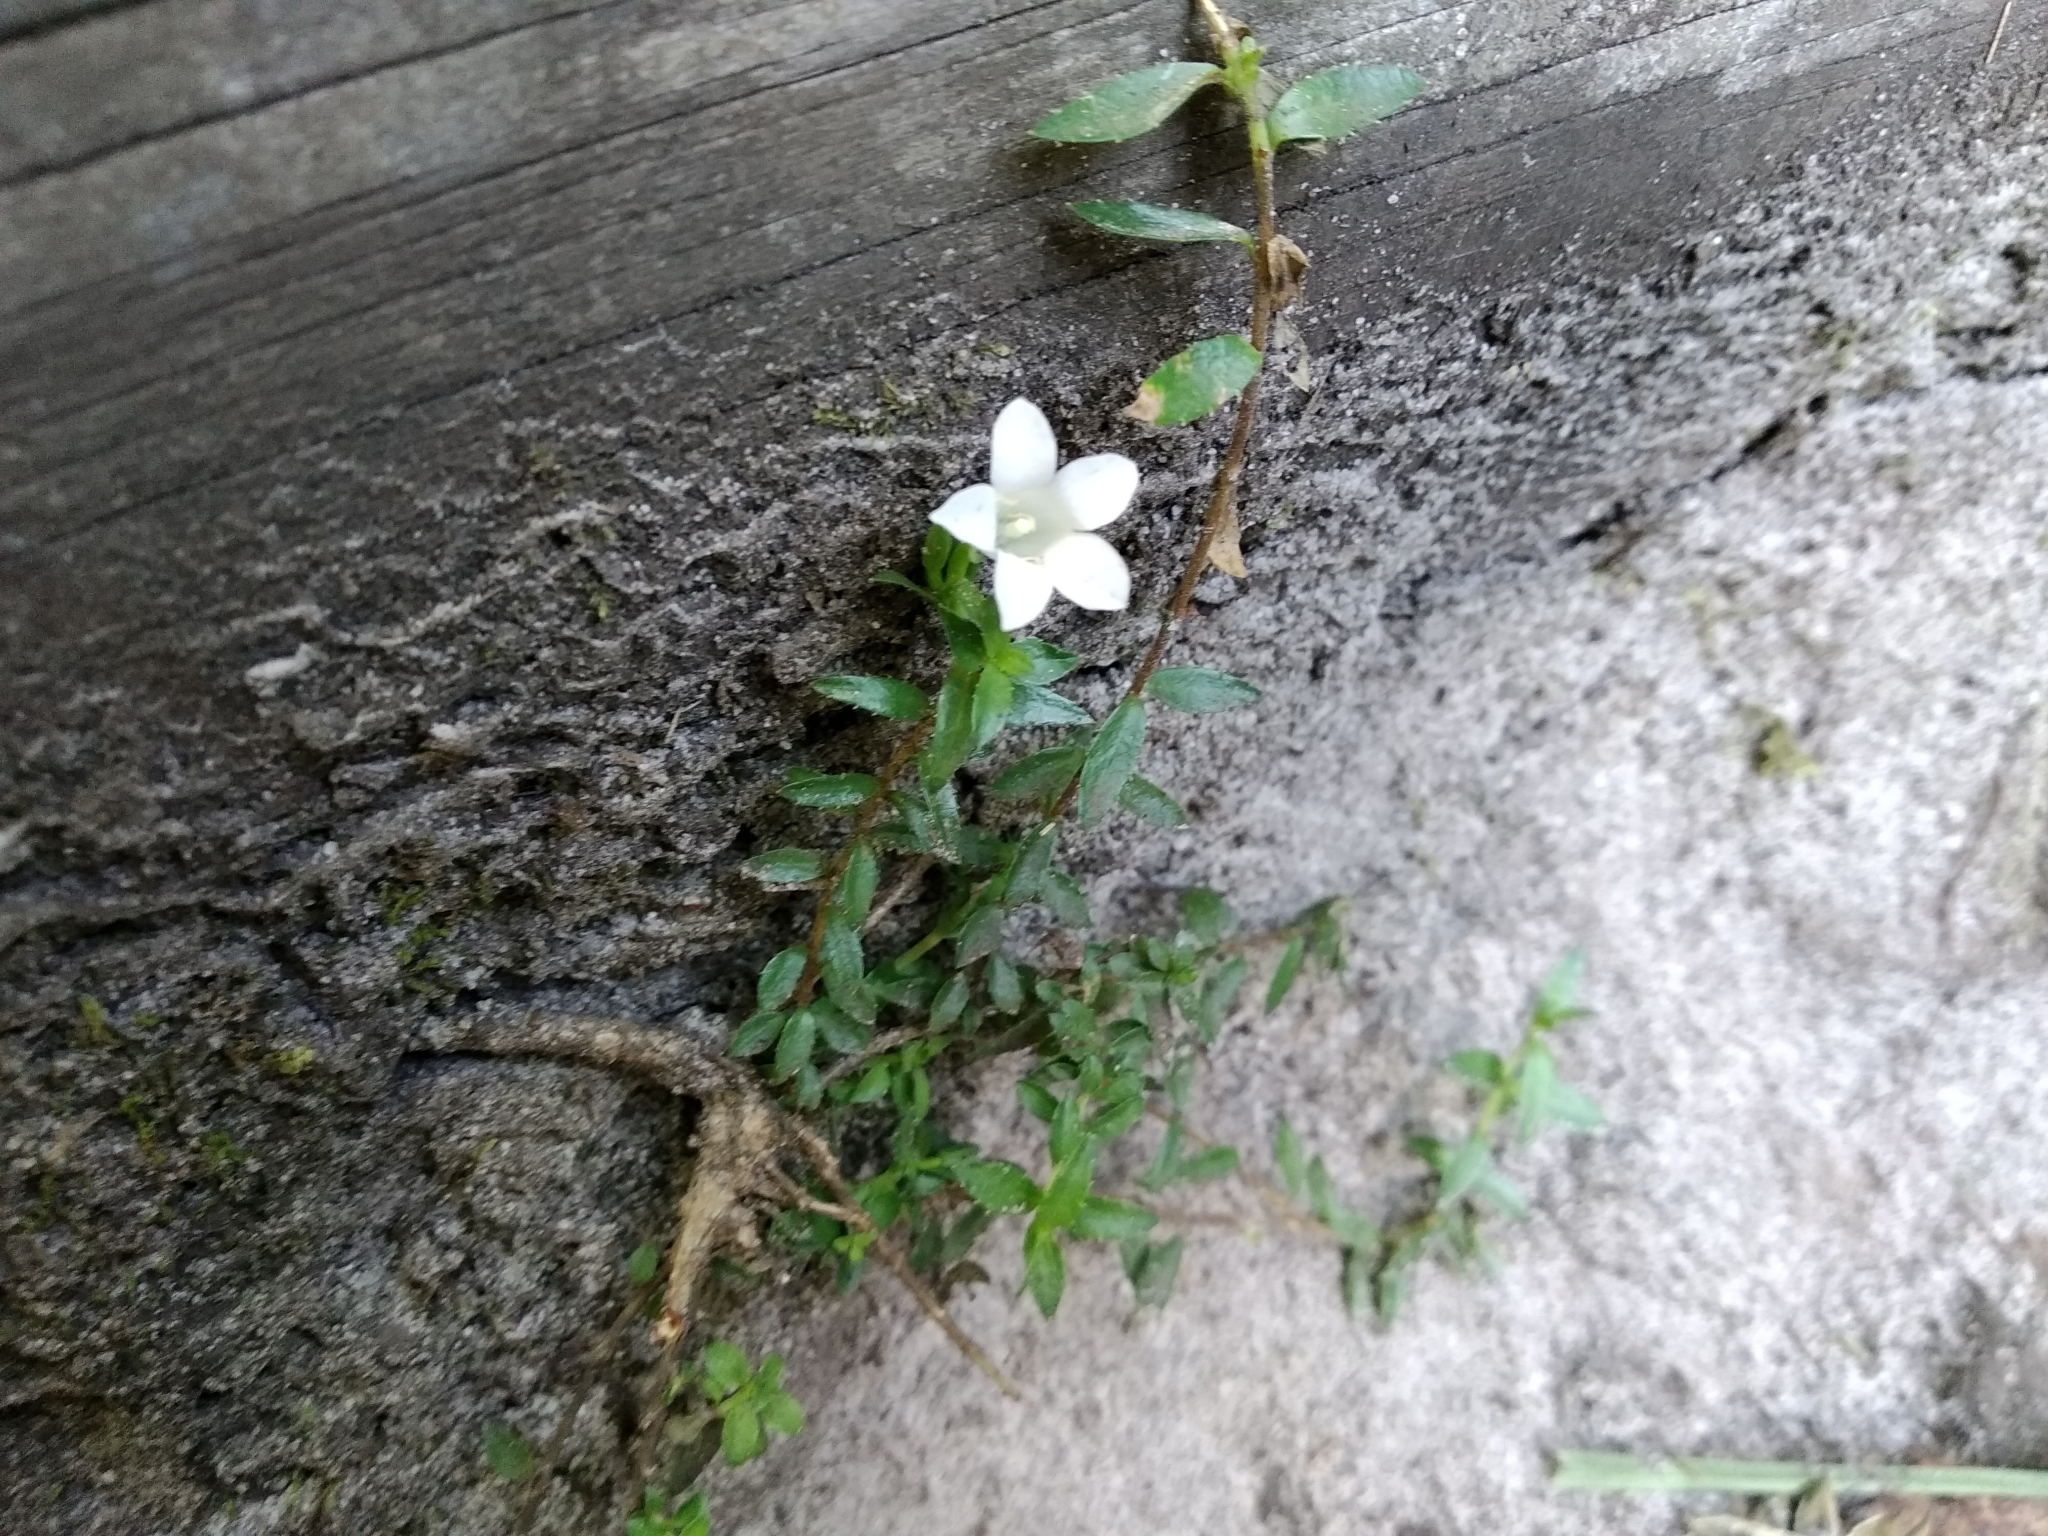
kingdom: Plantae
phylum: Tracheophyta
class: Magnoliopsida
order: Asterales
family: Campanulaceae
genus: Prismatocarpus
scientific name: Prismatocarpus nitidus
